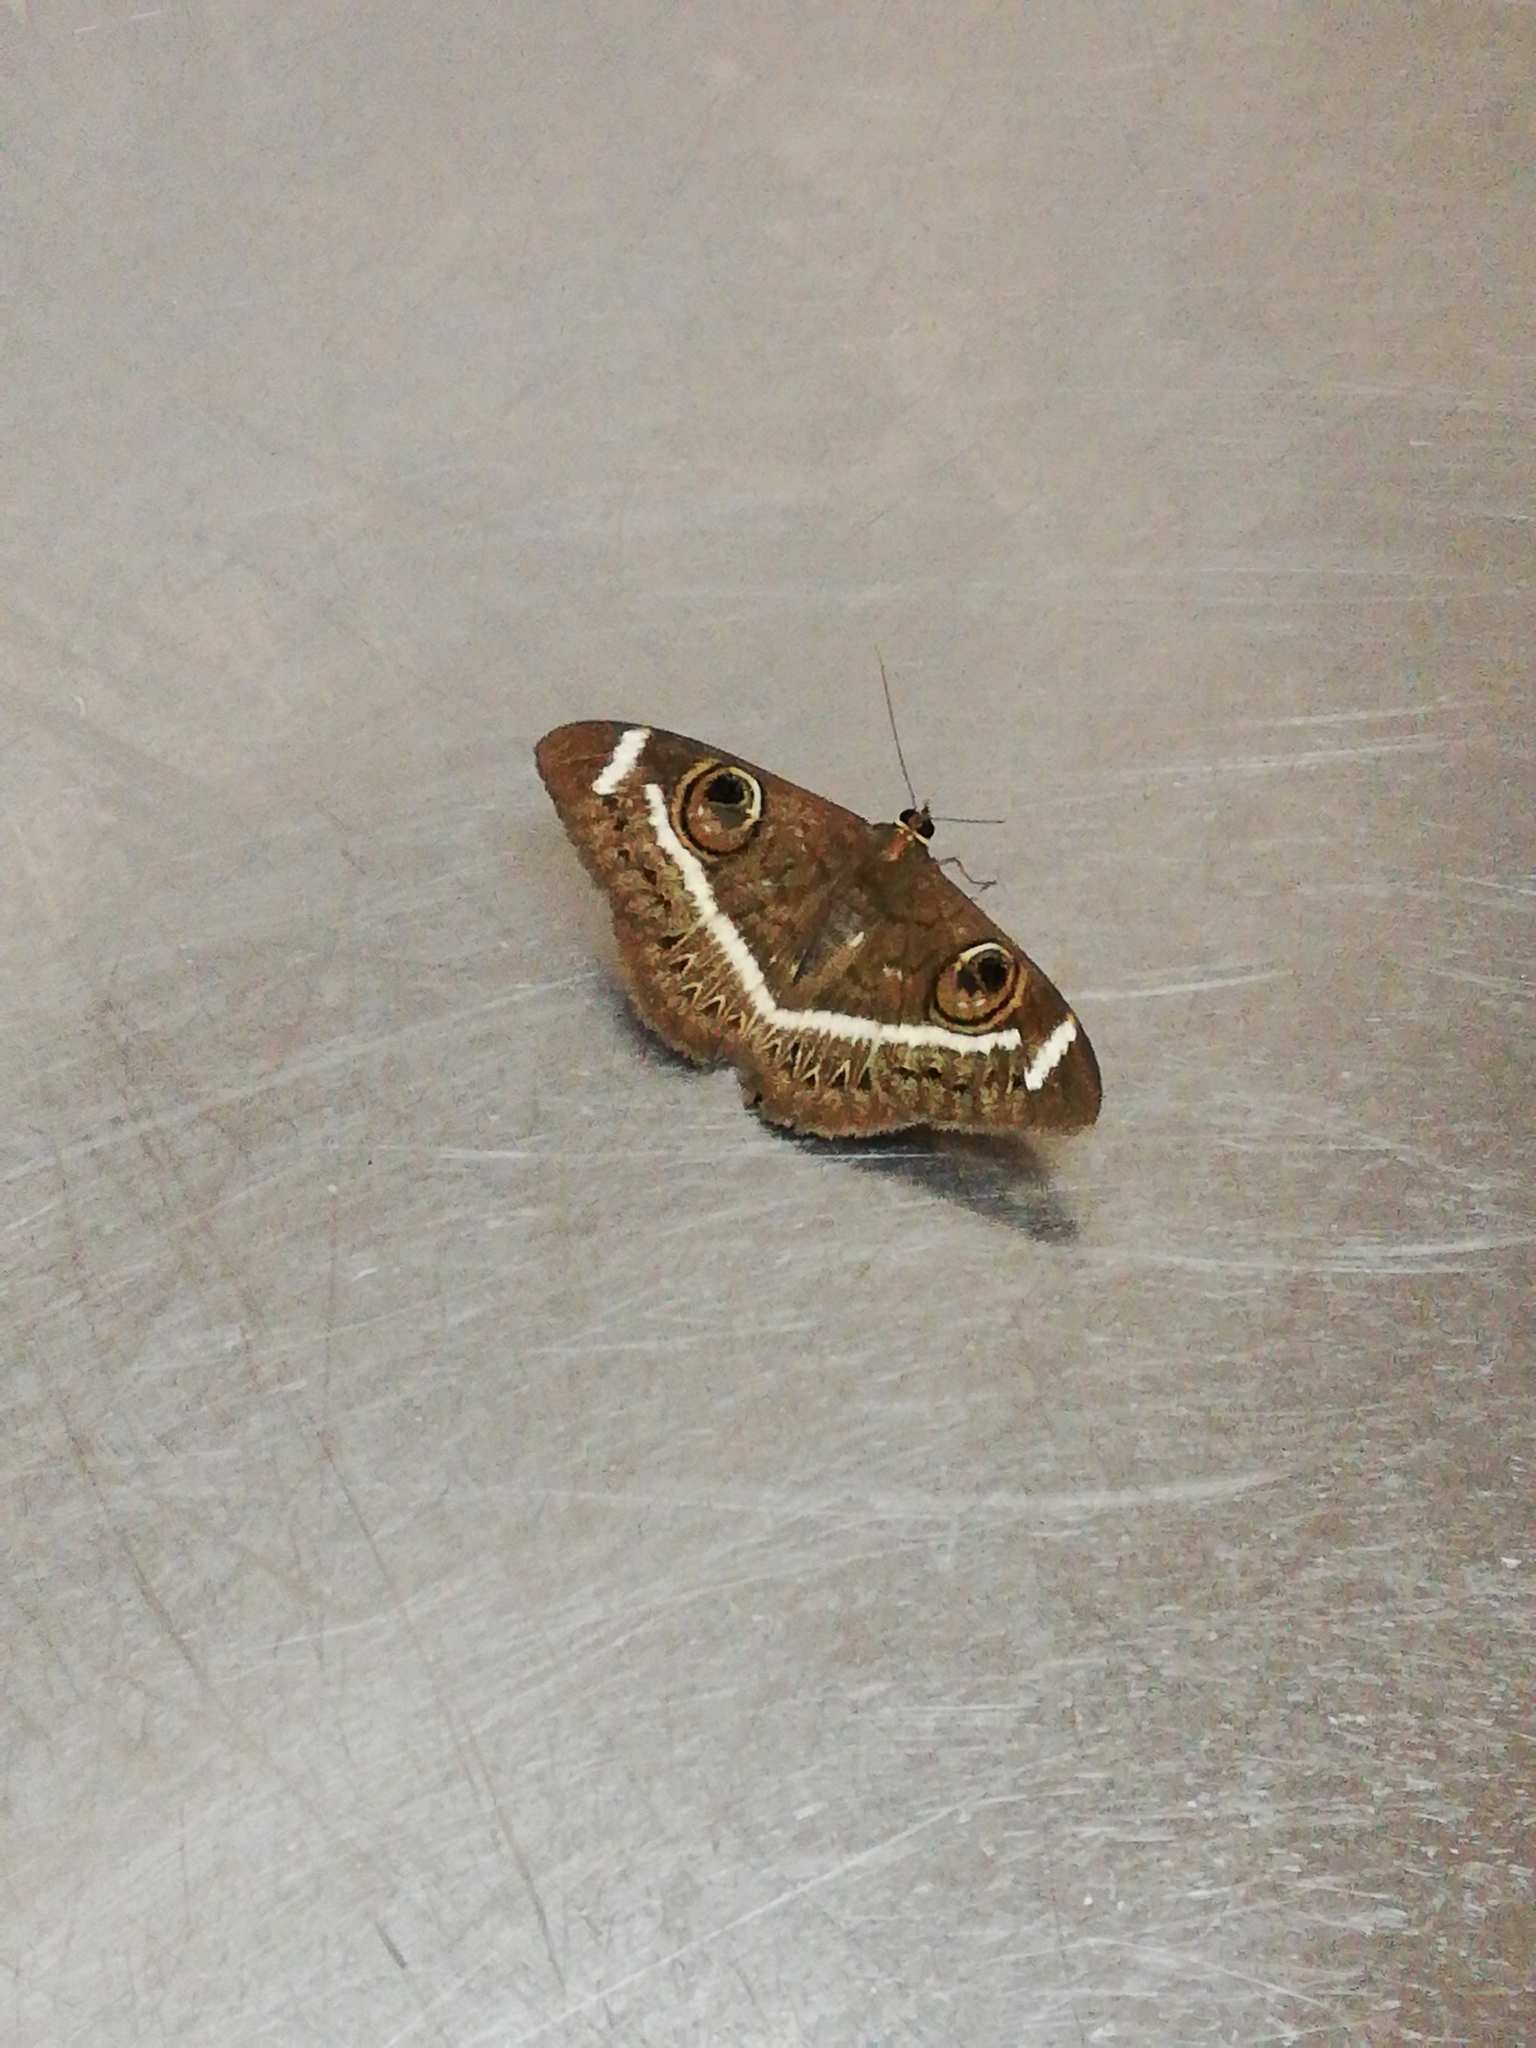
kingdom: Animalia
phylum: Arthropoda
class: Insecta
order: Lepidoptera
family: Erebidae
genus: Cyligramma
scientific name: Cyligramma latona
